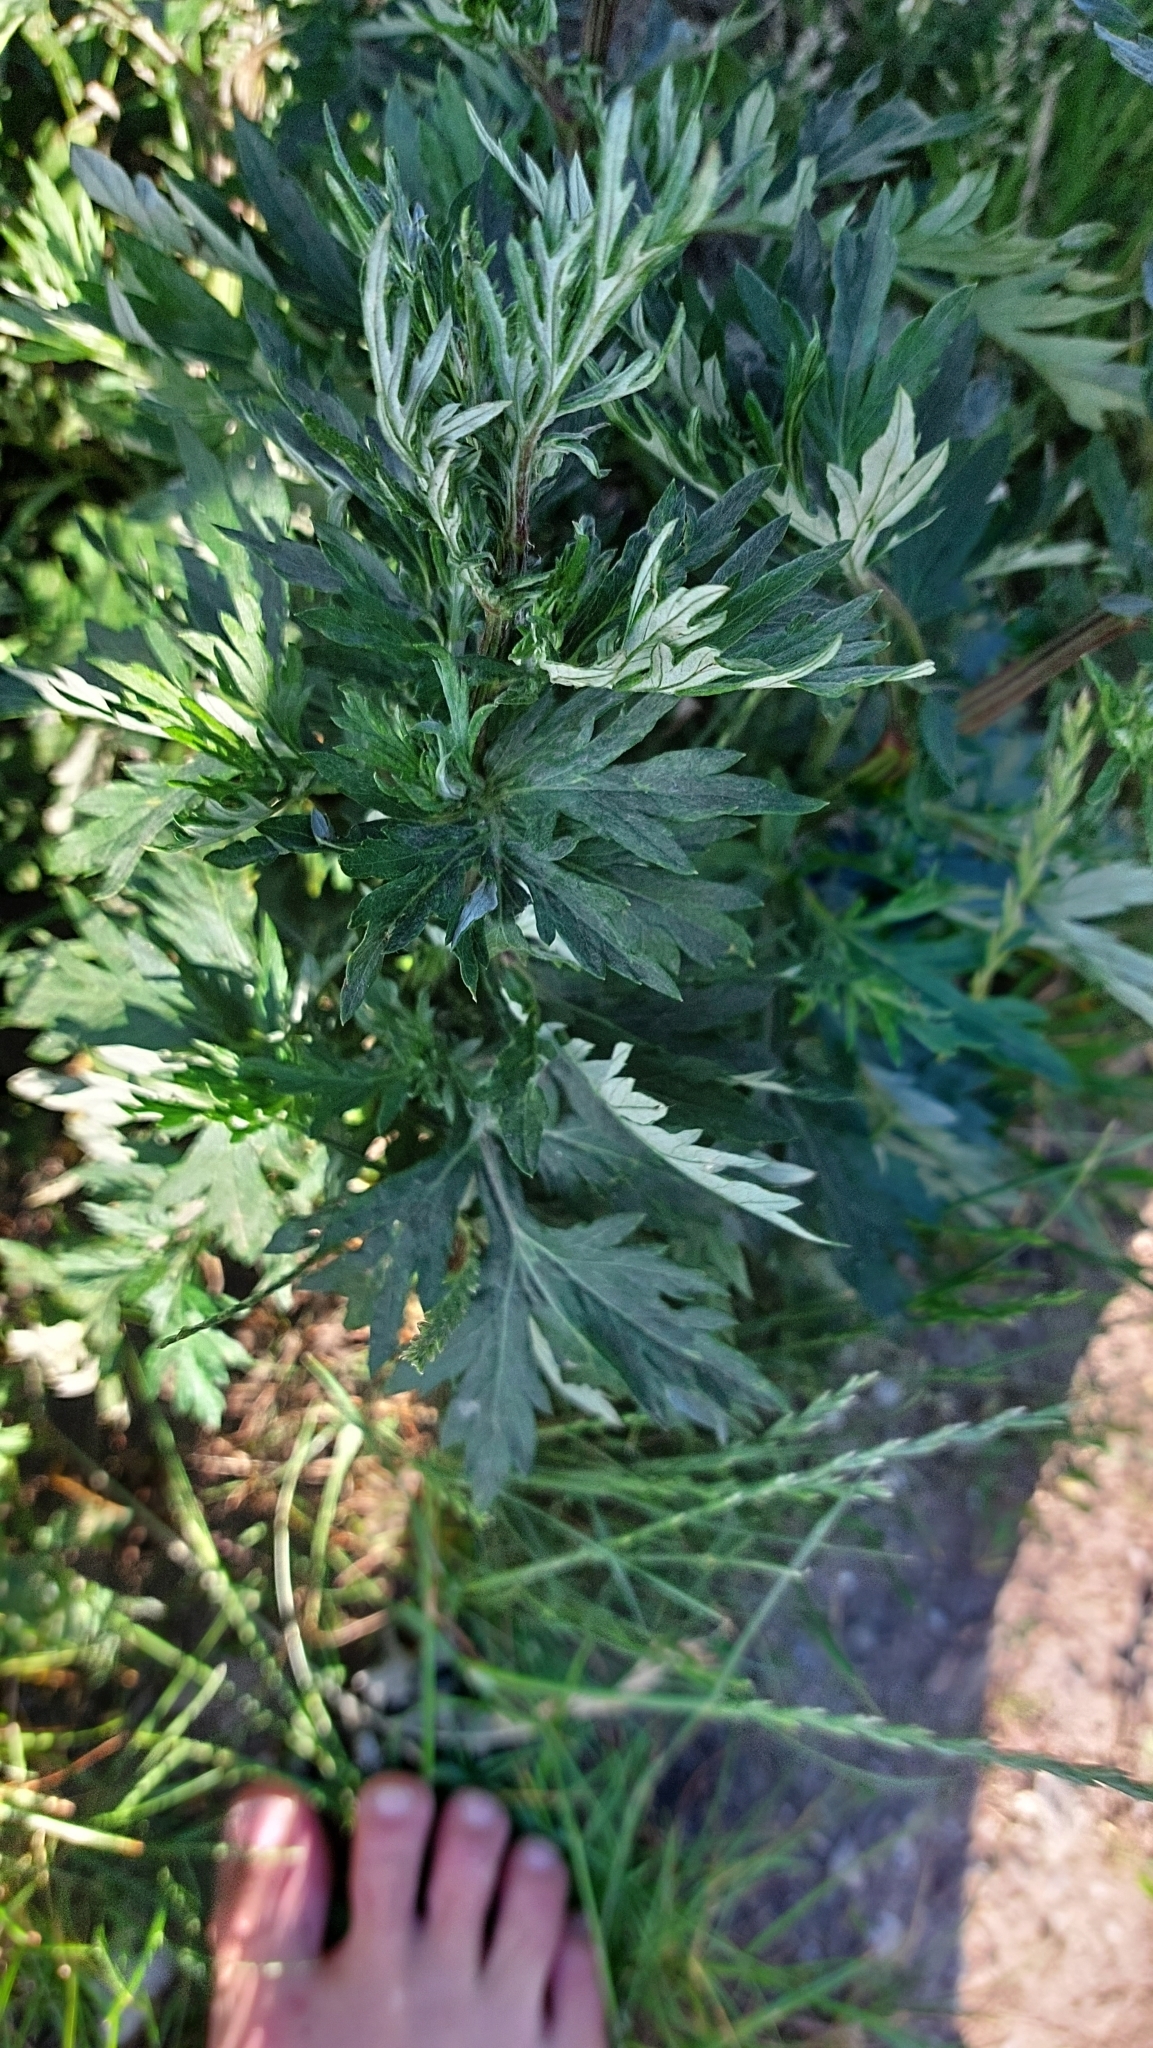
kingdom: Plantae
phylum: Tracheophyta
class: Magnoliopsida
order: Asterales
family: Asteraceae
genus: Artemisia
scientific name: Artemisia vulgaris
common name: Mugwort
